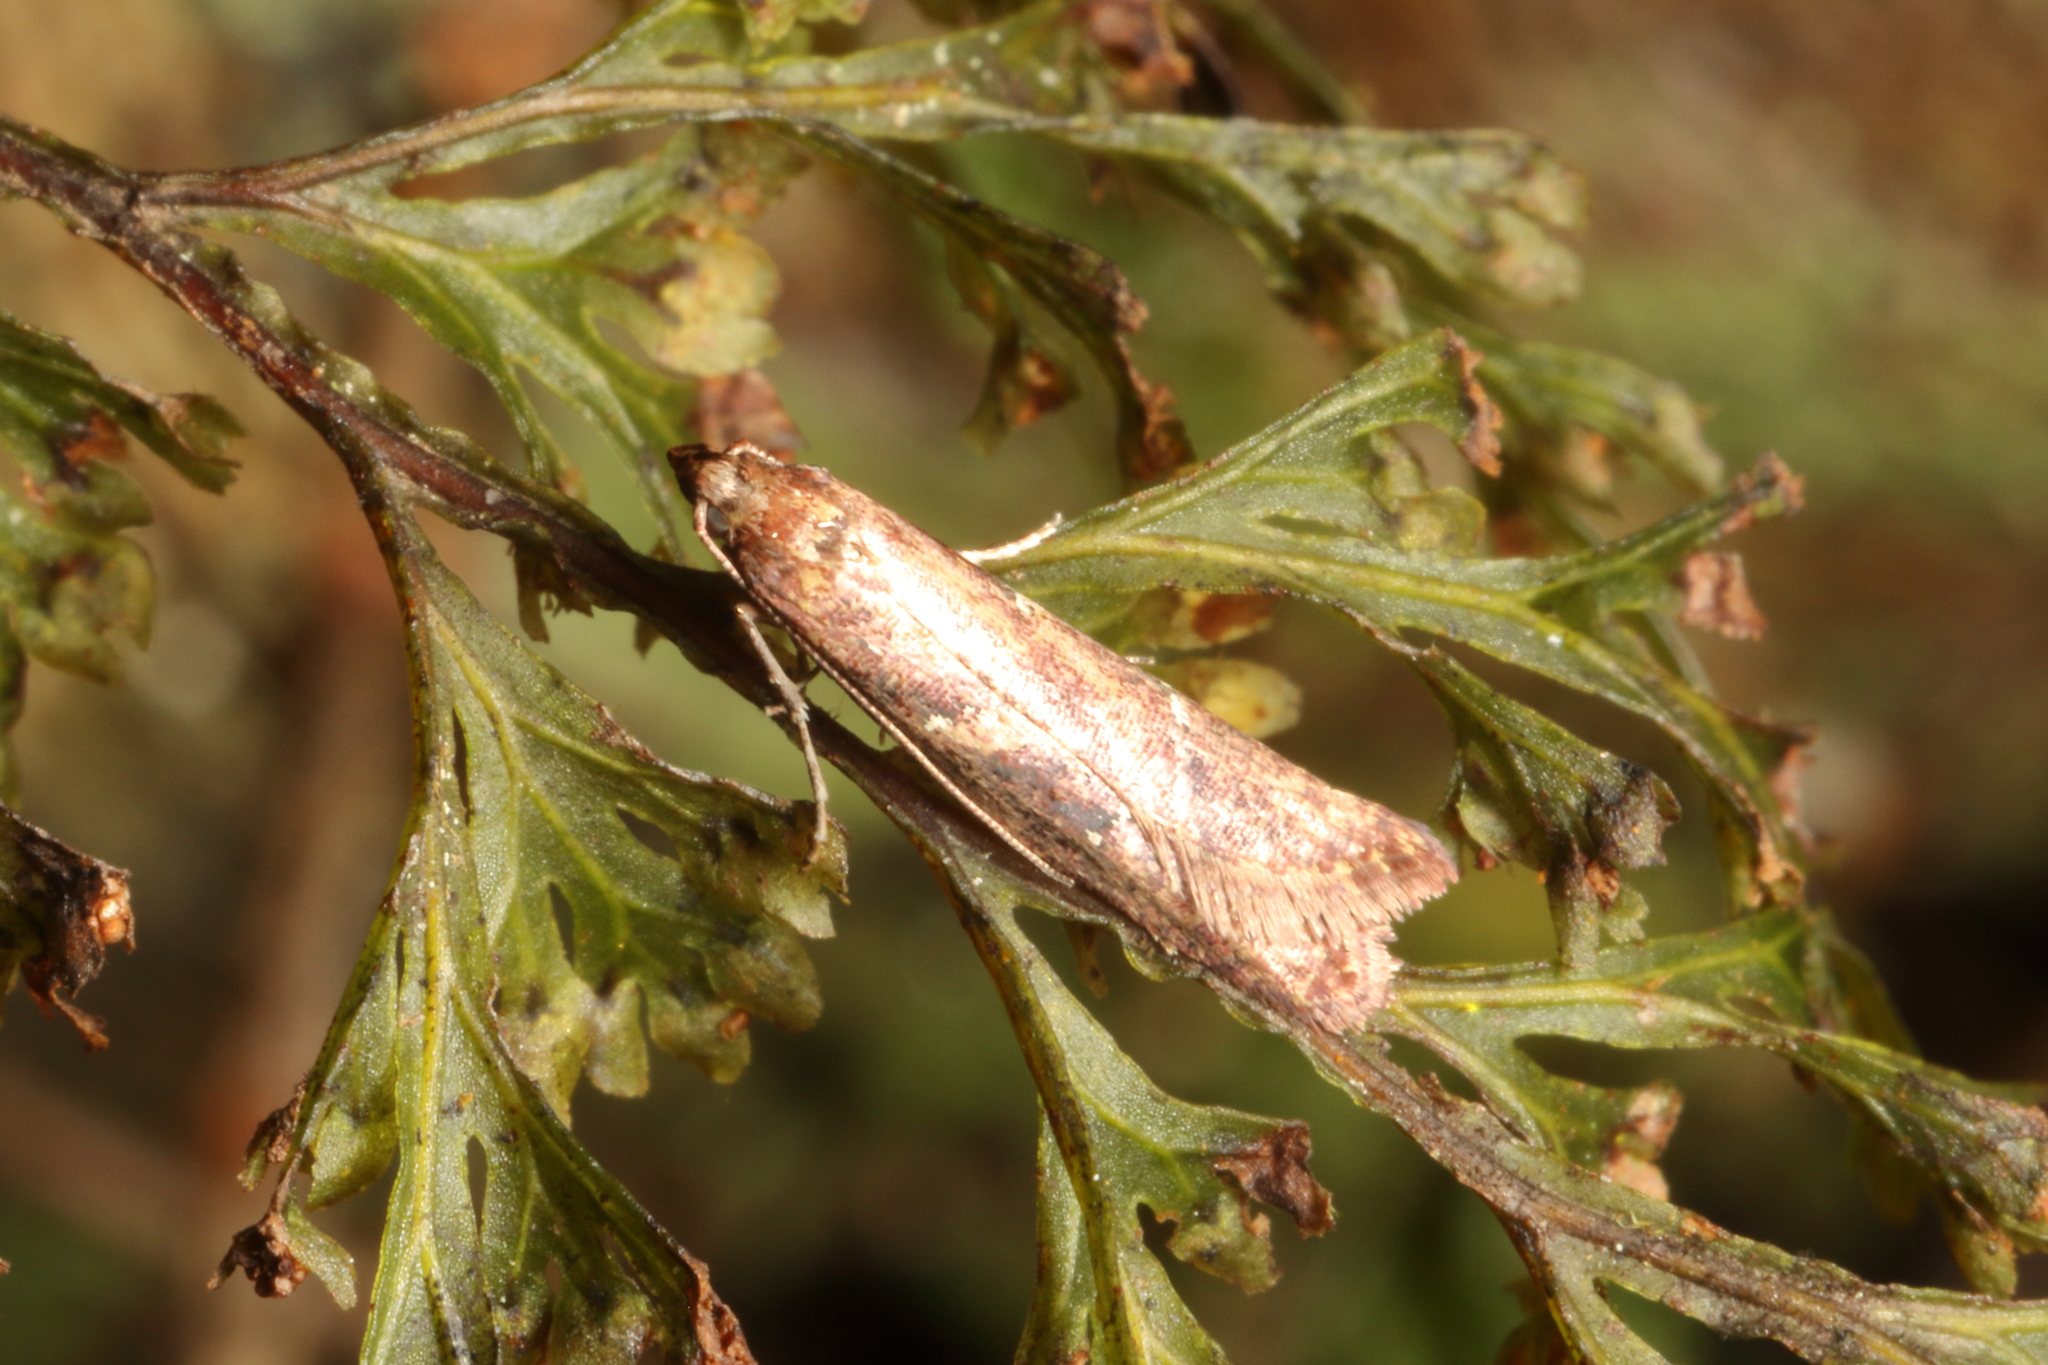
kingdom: Animalia
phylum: Arthropoda
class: Insecta
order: Lepidoptera
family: Plutellidae
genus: Cadmogenes
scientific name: Cadmogenes literata
